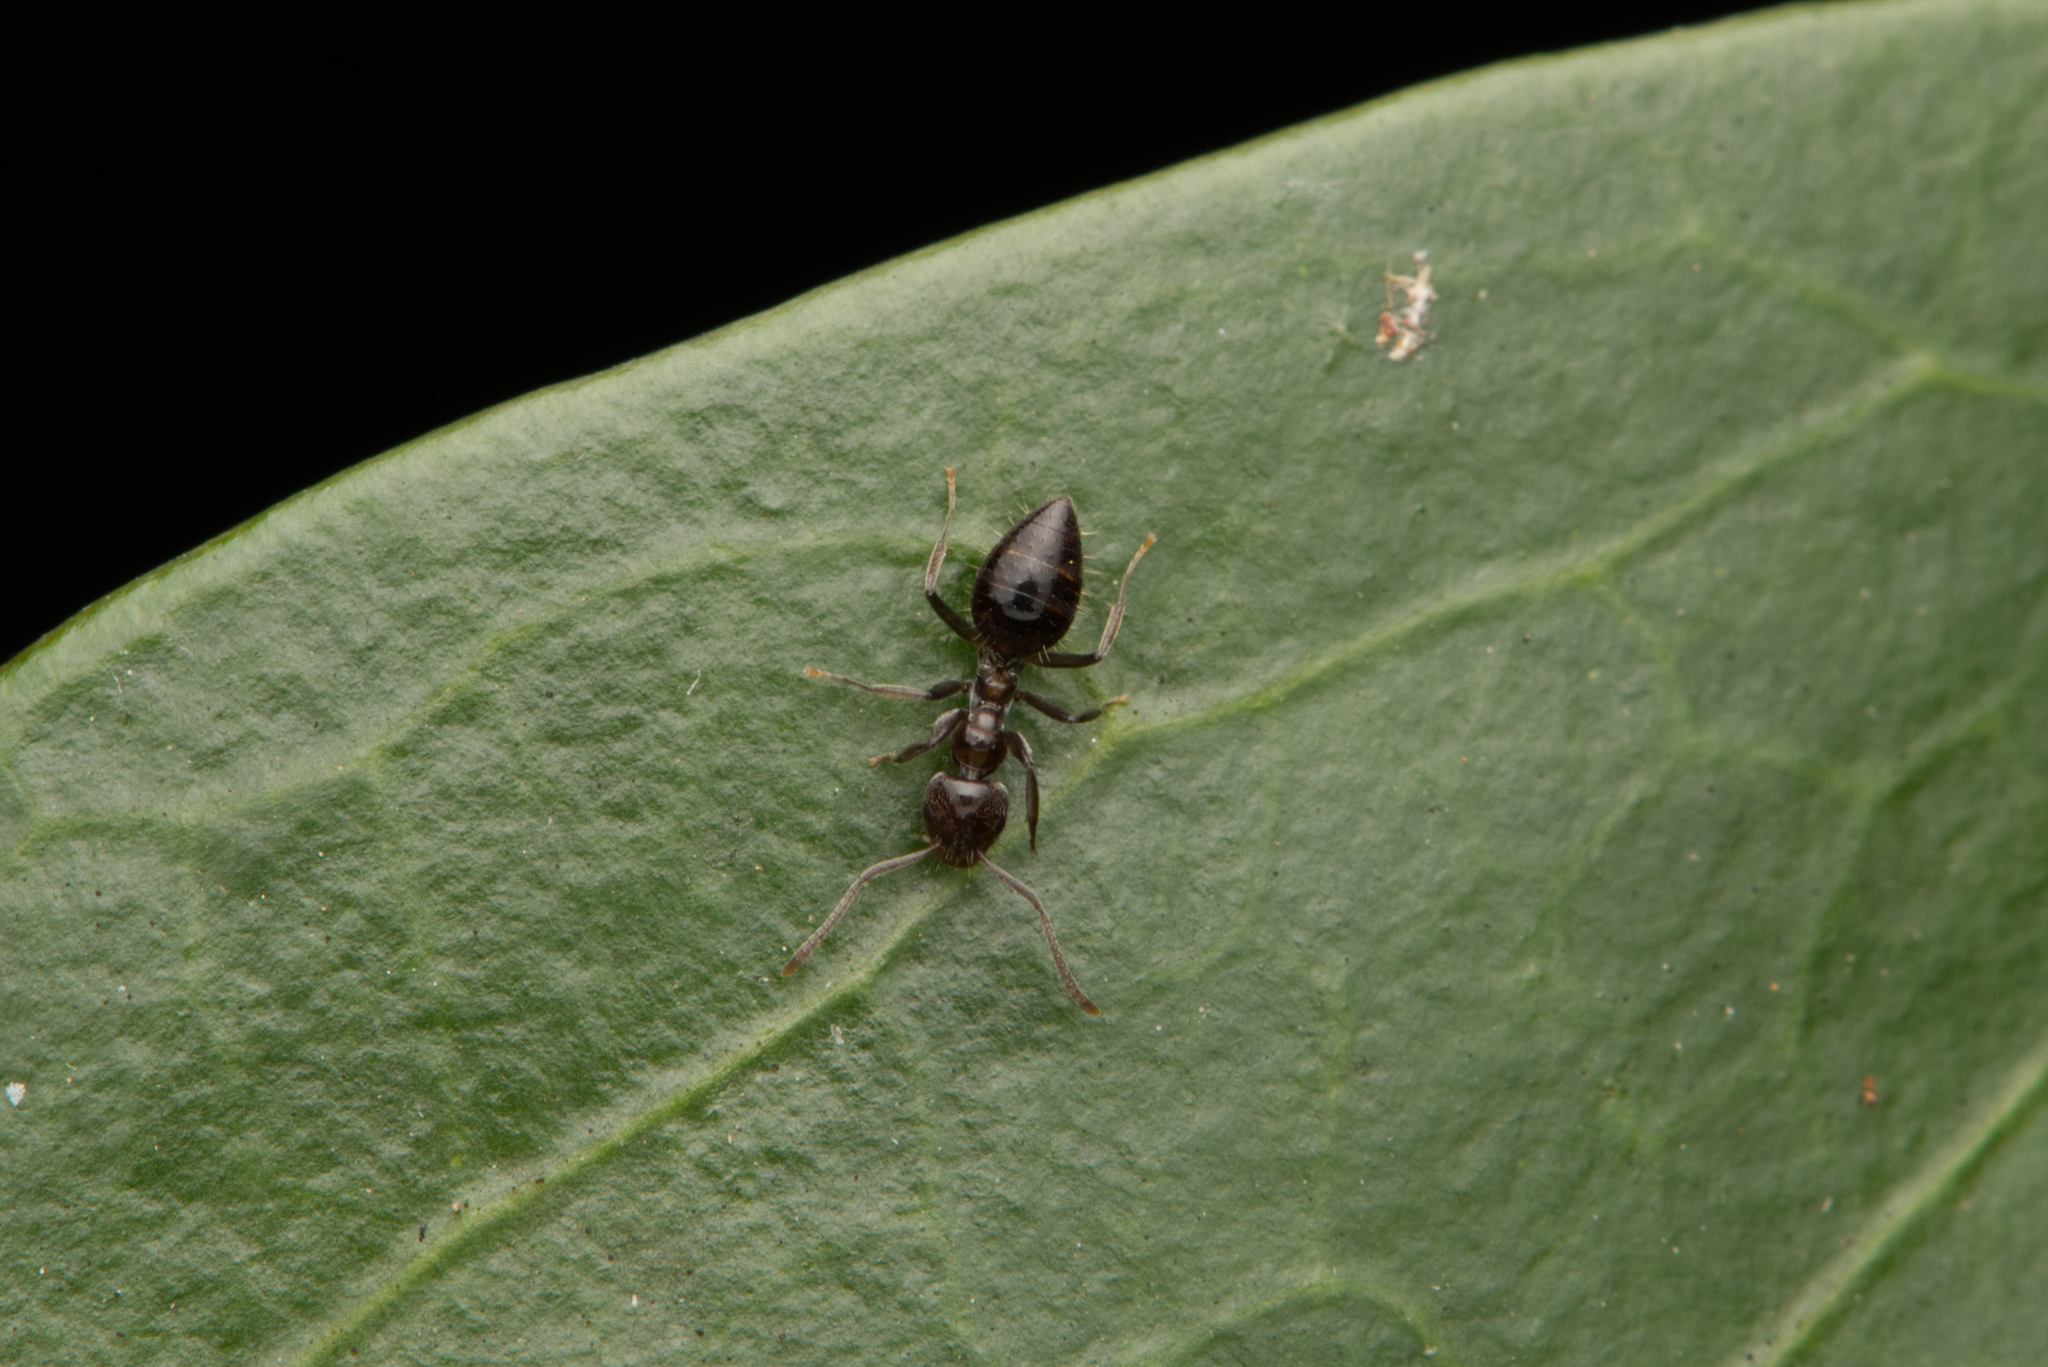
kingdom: Animalia
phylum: Arthropoda
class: Insecta
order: Hymenoptera
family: Formicidae
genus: Technomyrmex
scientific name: Technomyrmex sophiae
